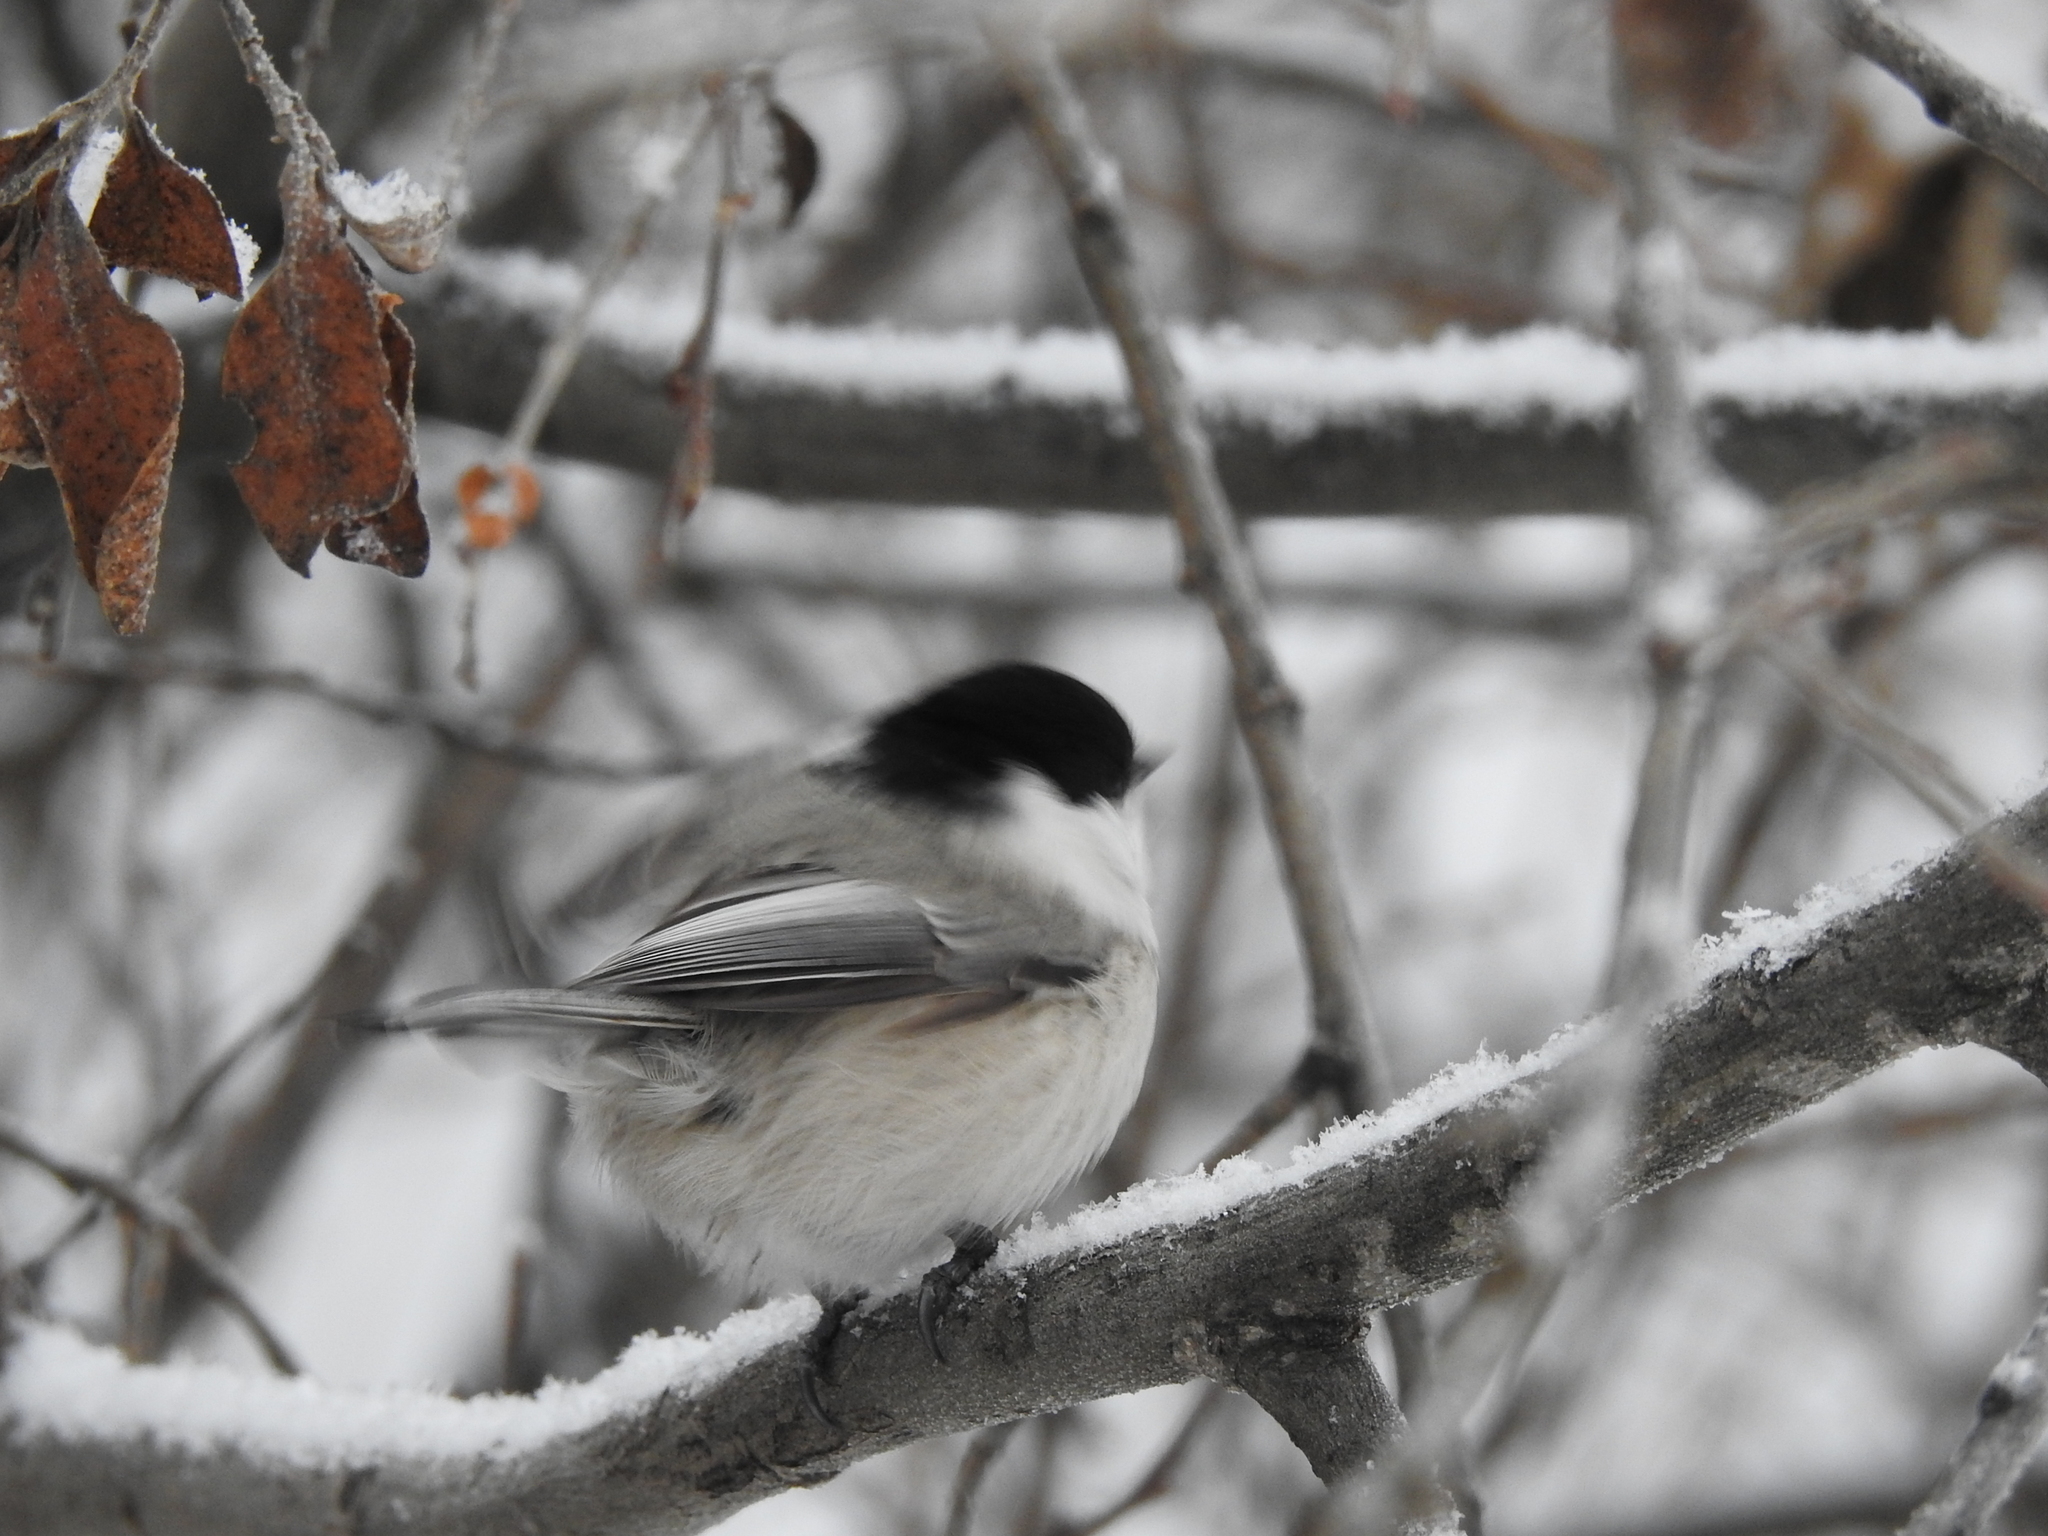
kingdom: Animalia
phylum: Chordata
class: Aves
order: Passeriformes
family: Paridae
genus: Poecile
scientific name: Poecile montanus
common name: Willow tit
